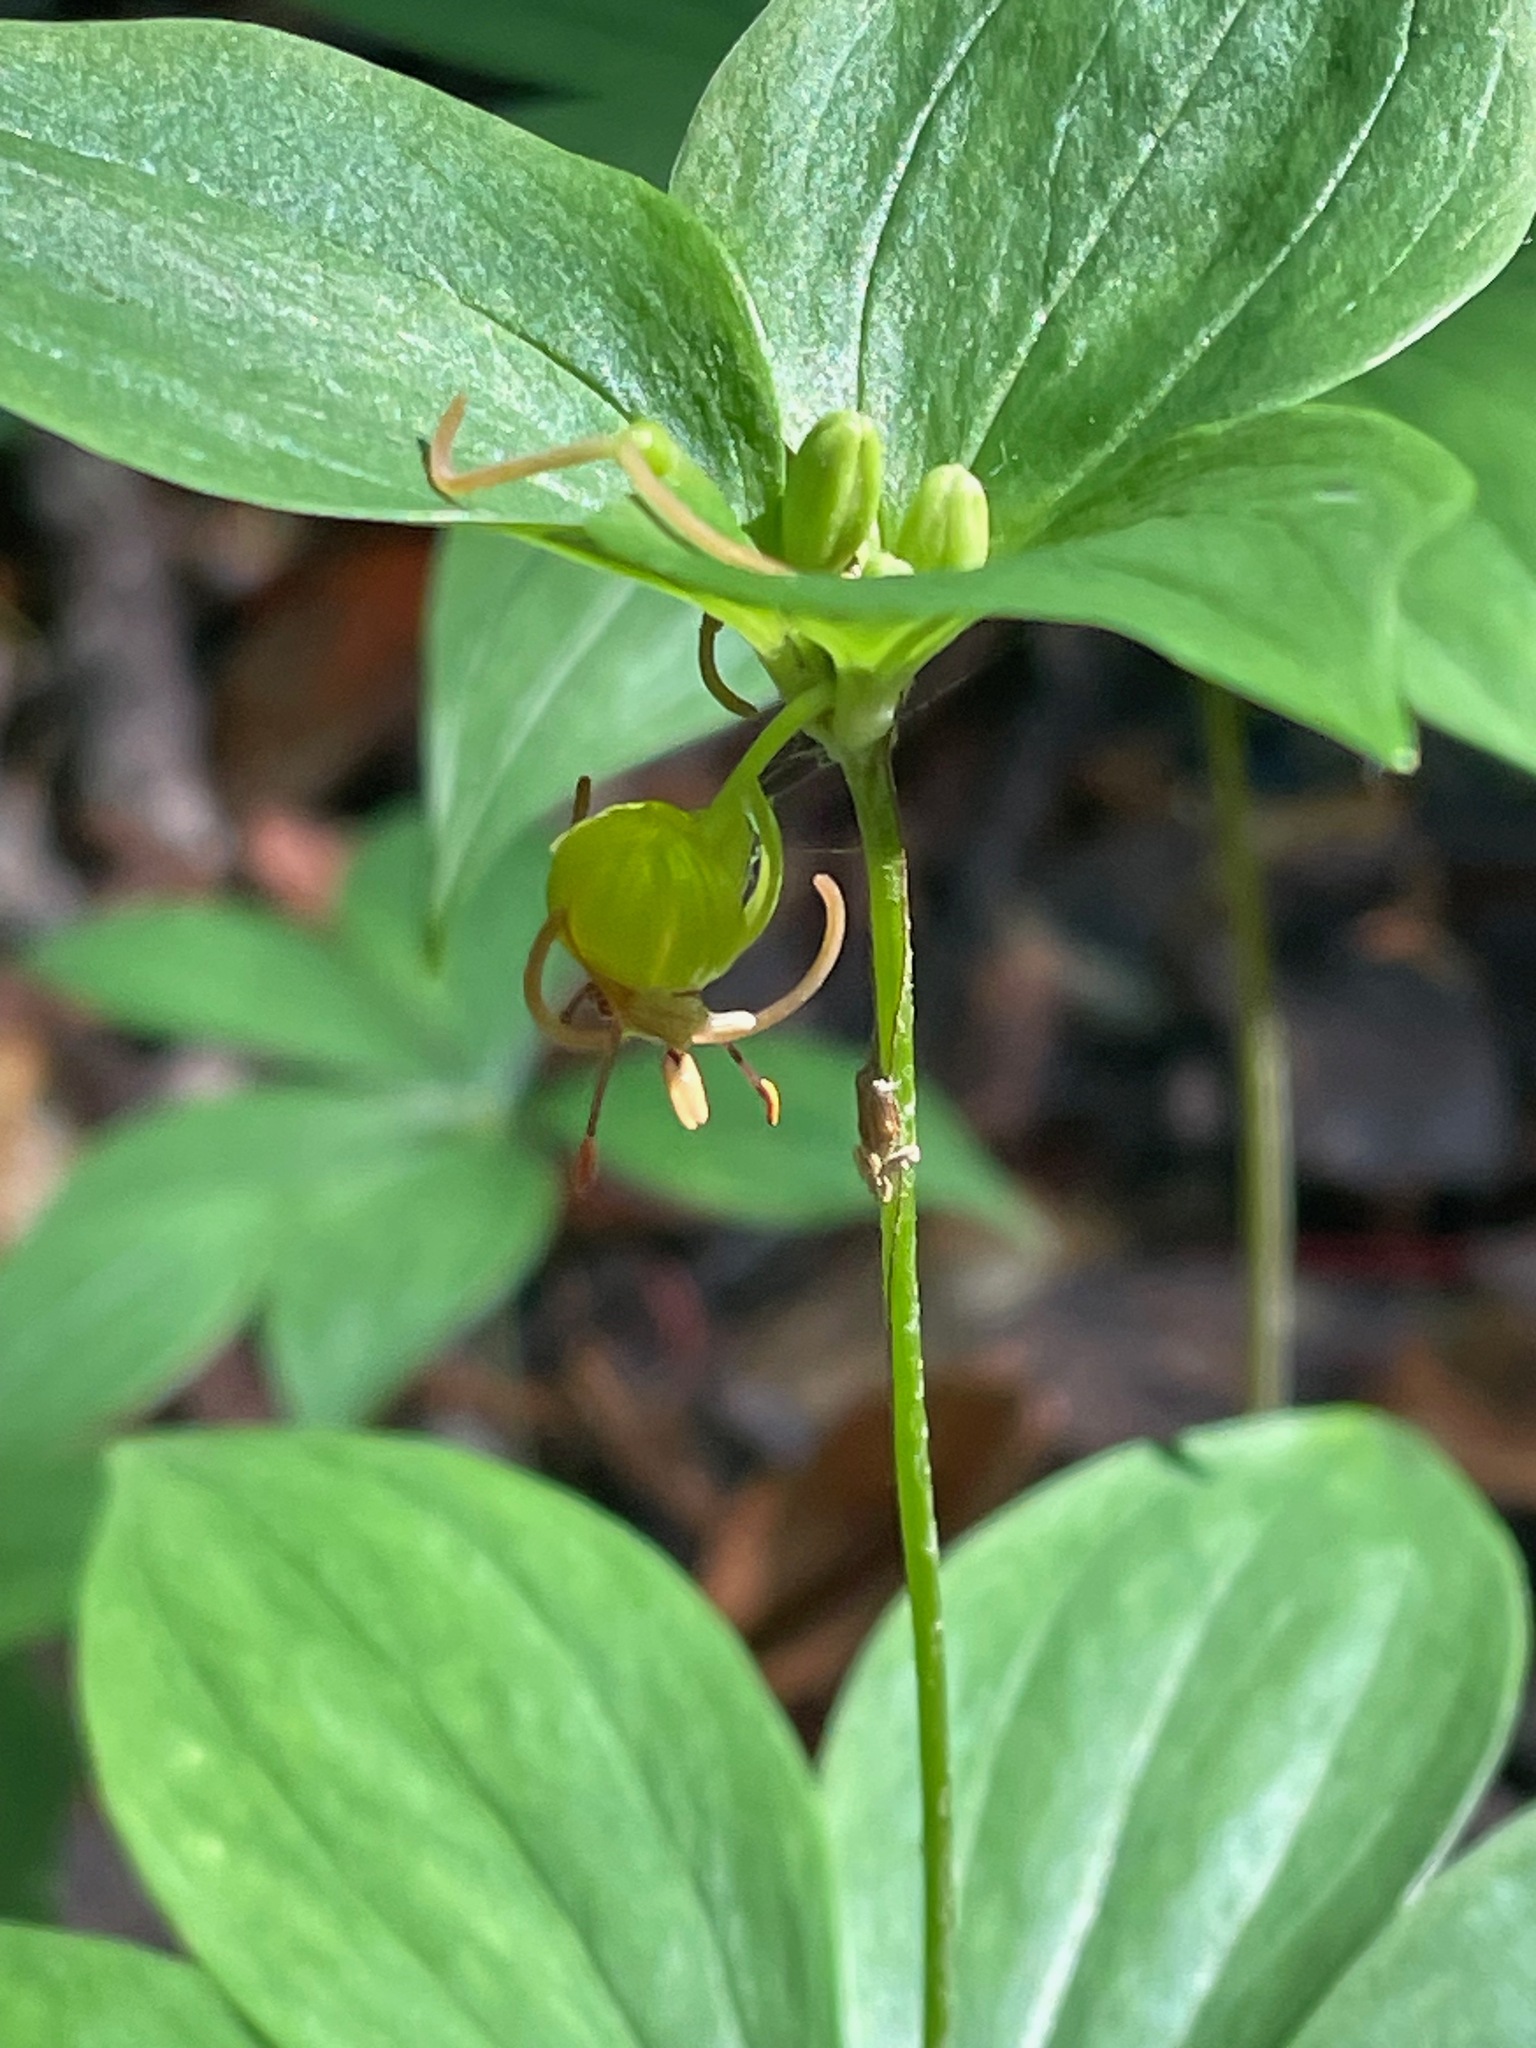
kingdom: Plantae
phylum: Tracheophyta
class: Liliopsida
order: Liliales
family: Liliaceae
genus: Medeola
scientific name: Medeola virginiana
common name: Indian cucumber-root
